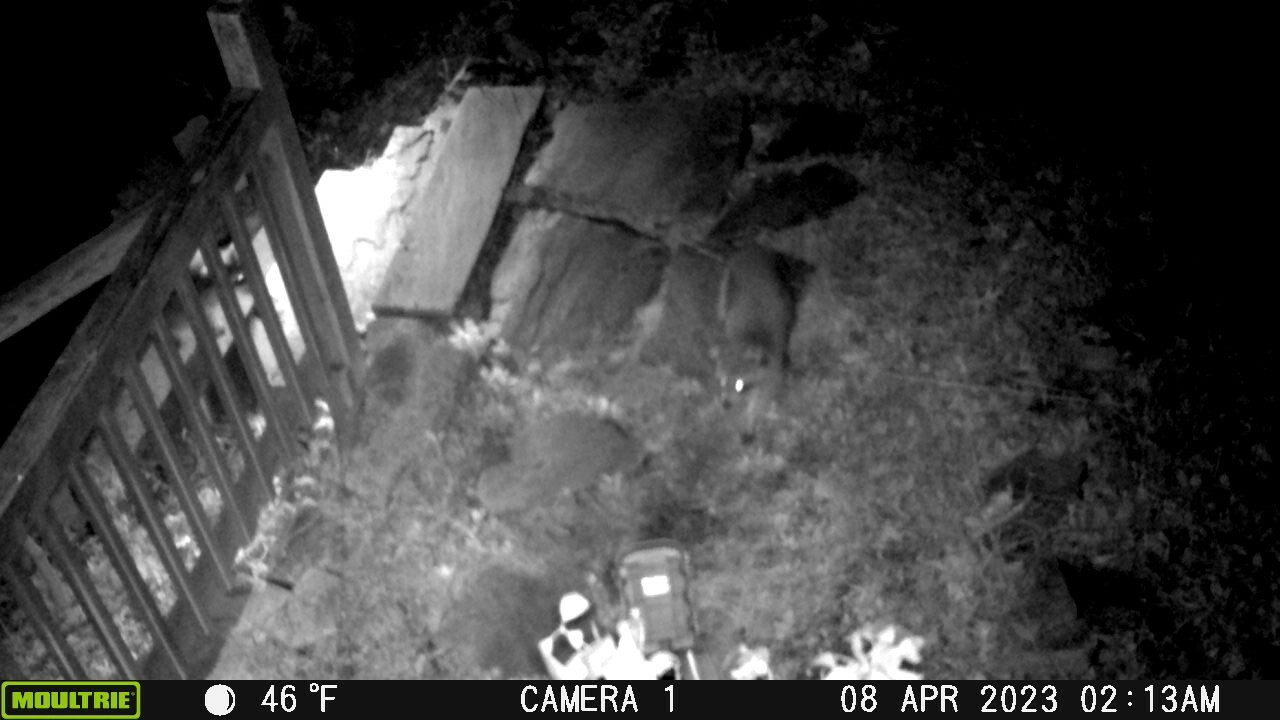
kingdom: Animalia
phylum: Chordata
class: Mammalia
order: Carnivora
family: Procyonidae
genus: Procyon
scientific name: Procyon lotor
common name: Raccoon
